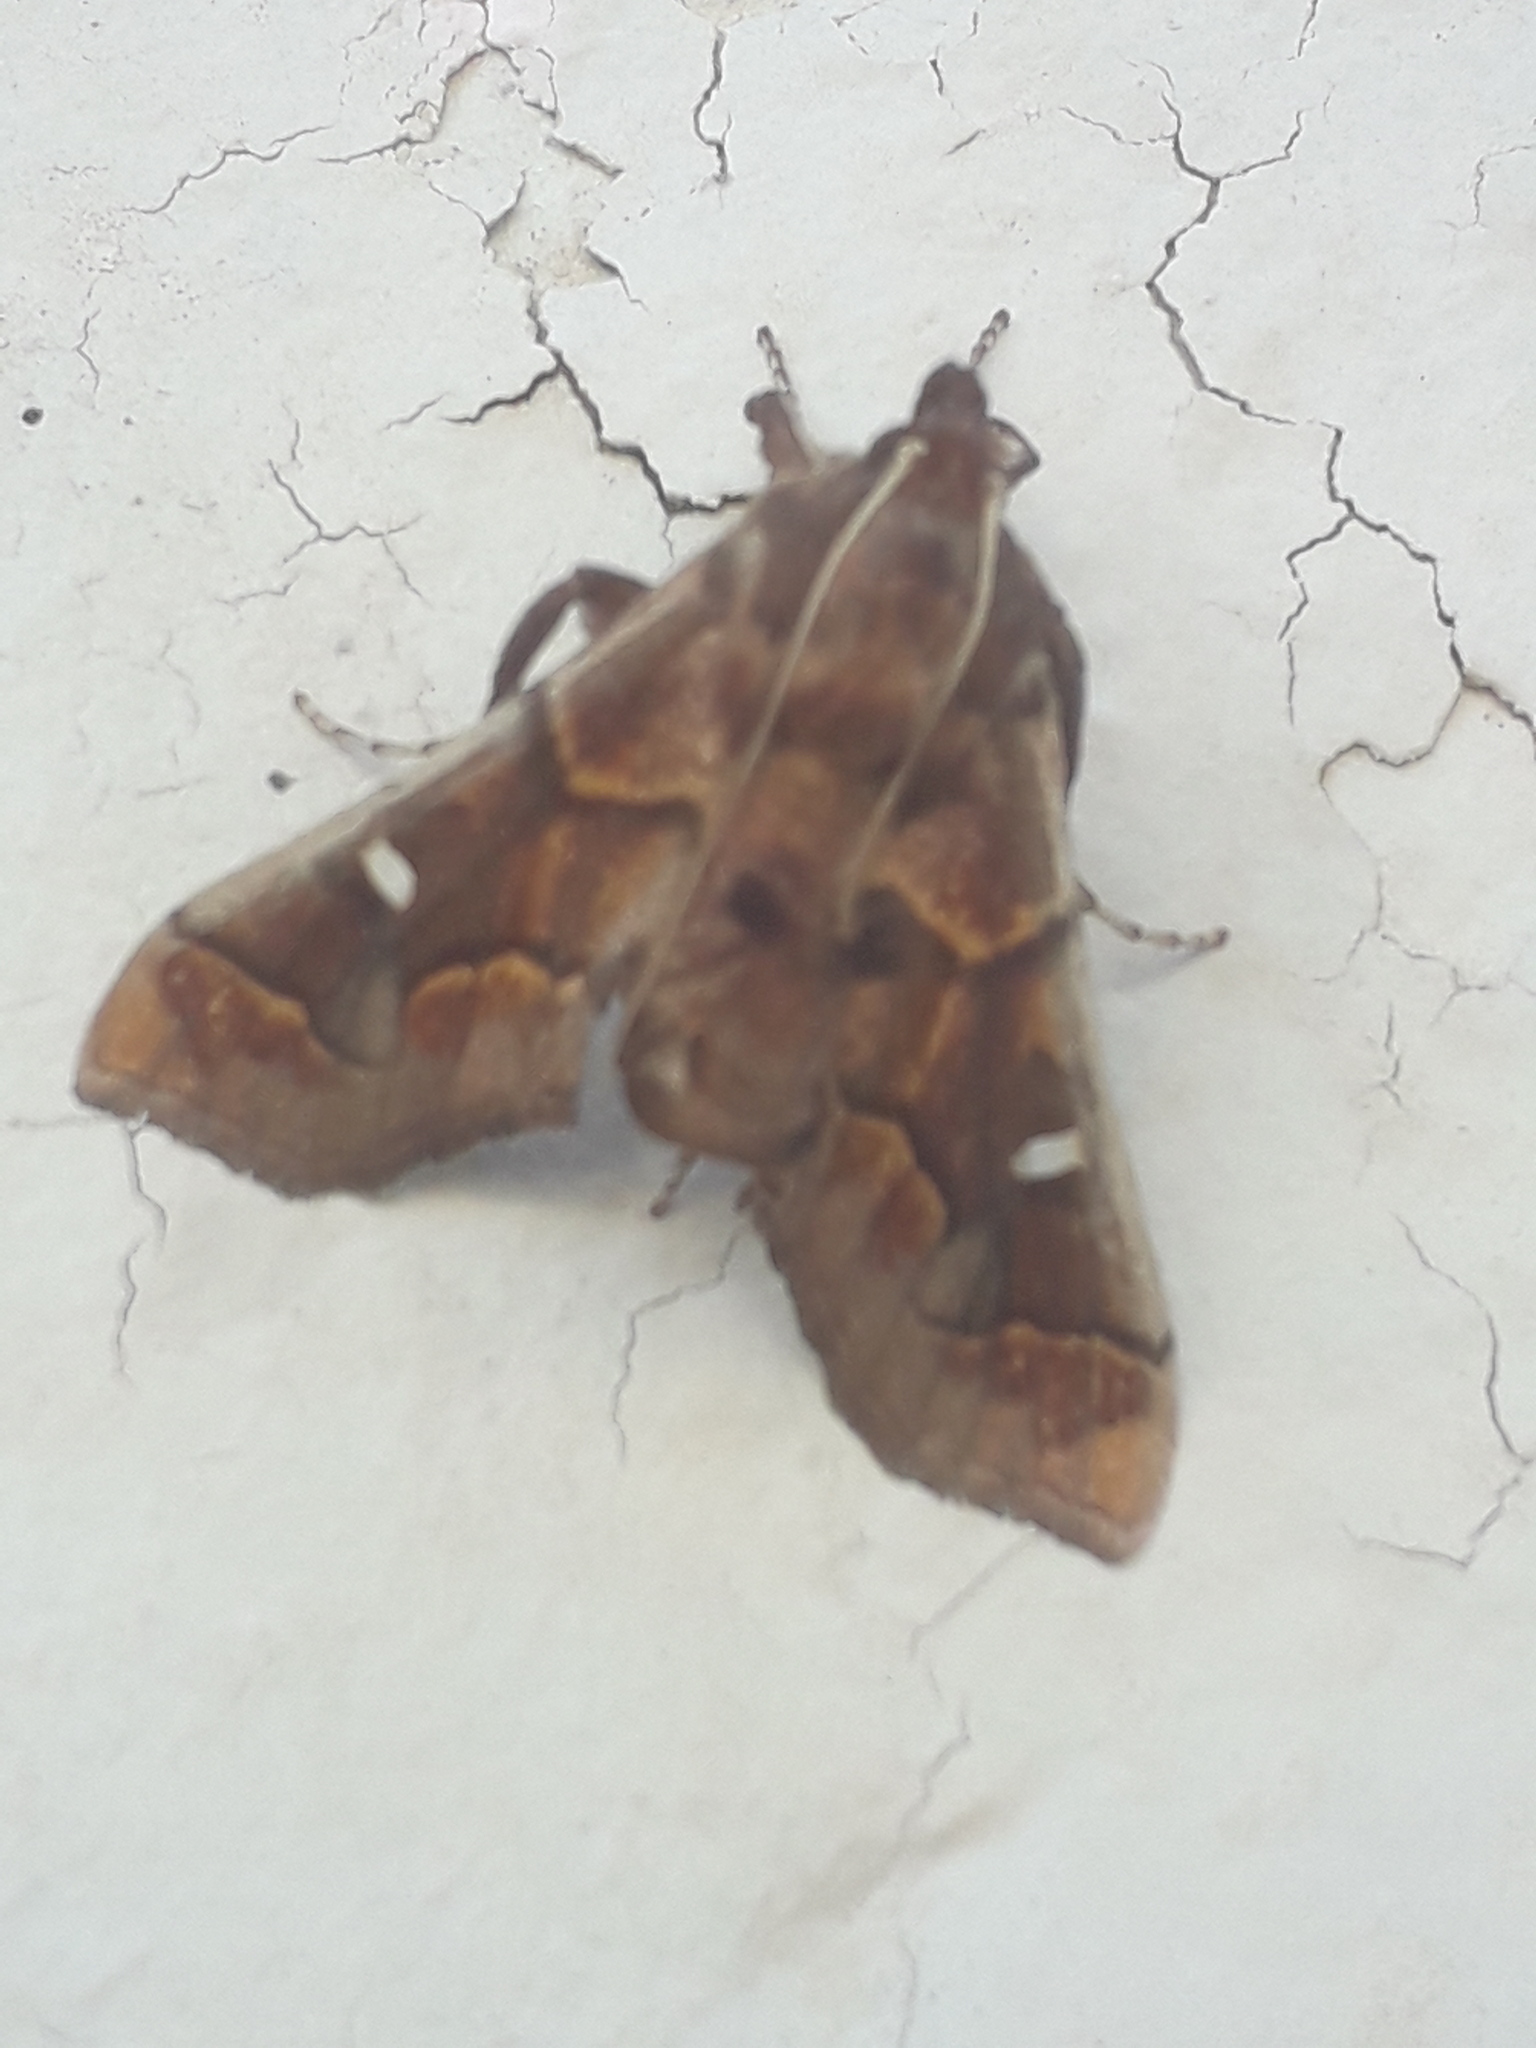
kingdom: Animalia
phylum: Arthropoda
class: Insecta
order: Lepidoptera
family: Crambidae
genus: Polygrammodes
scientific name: Polygrammodes cyamon
